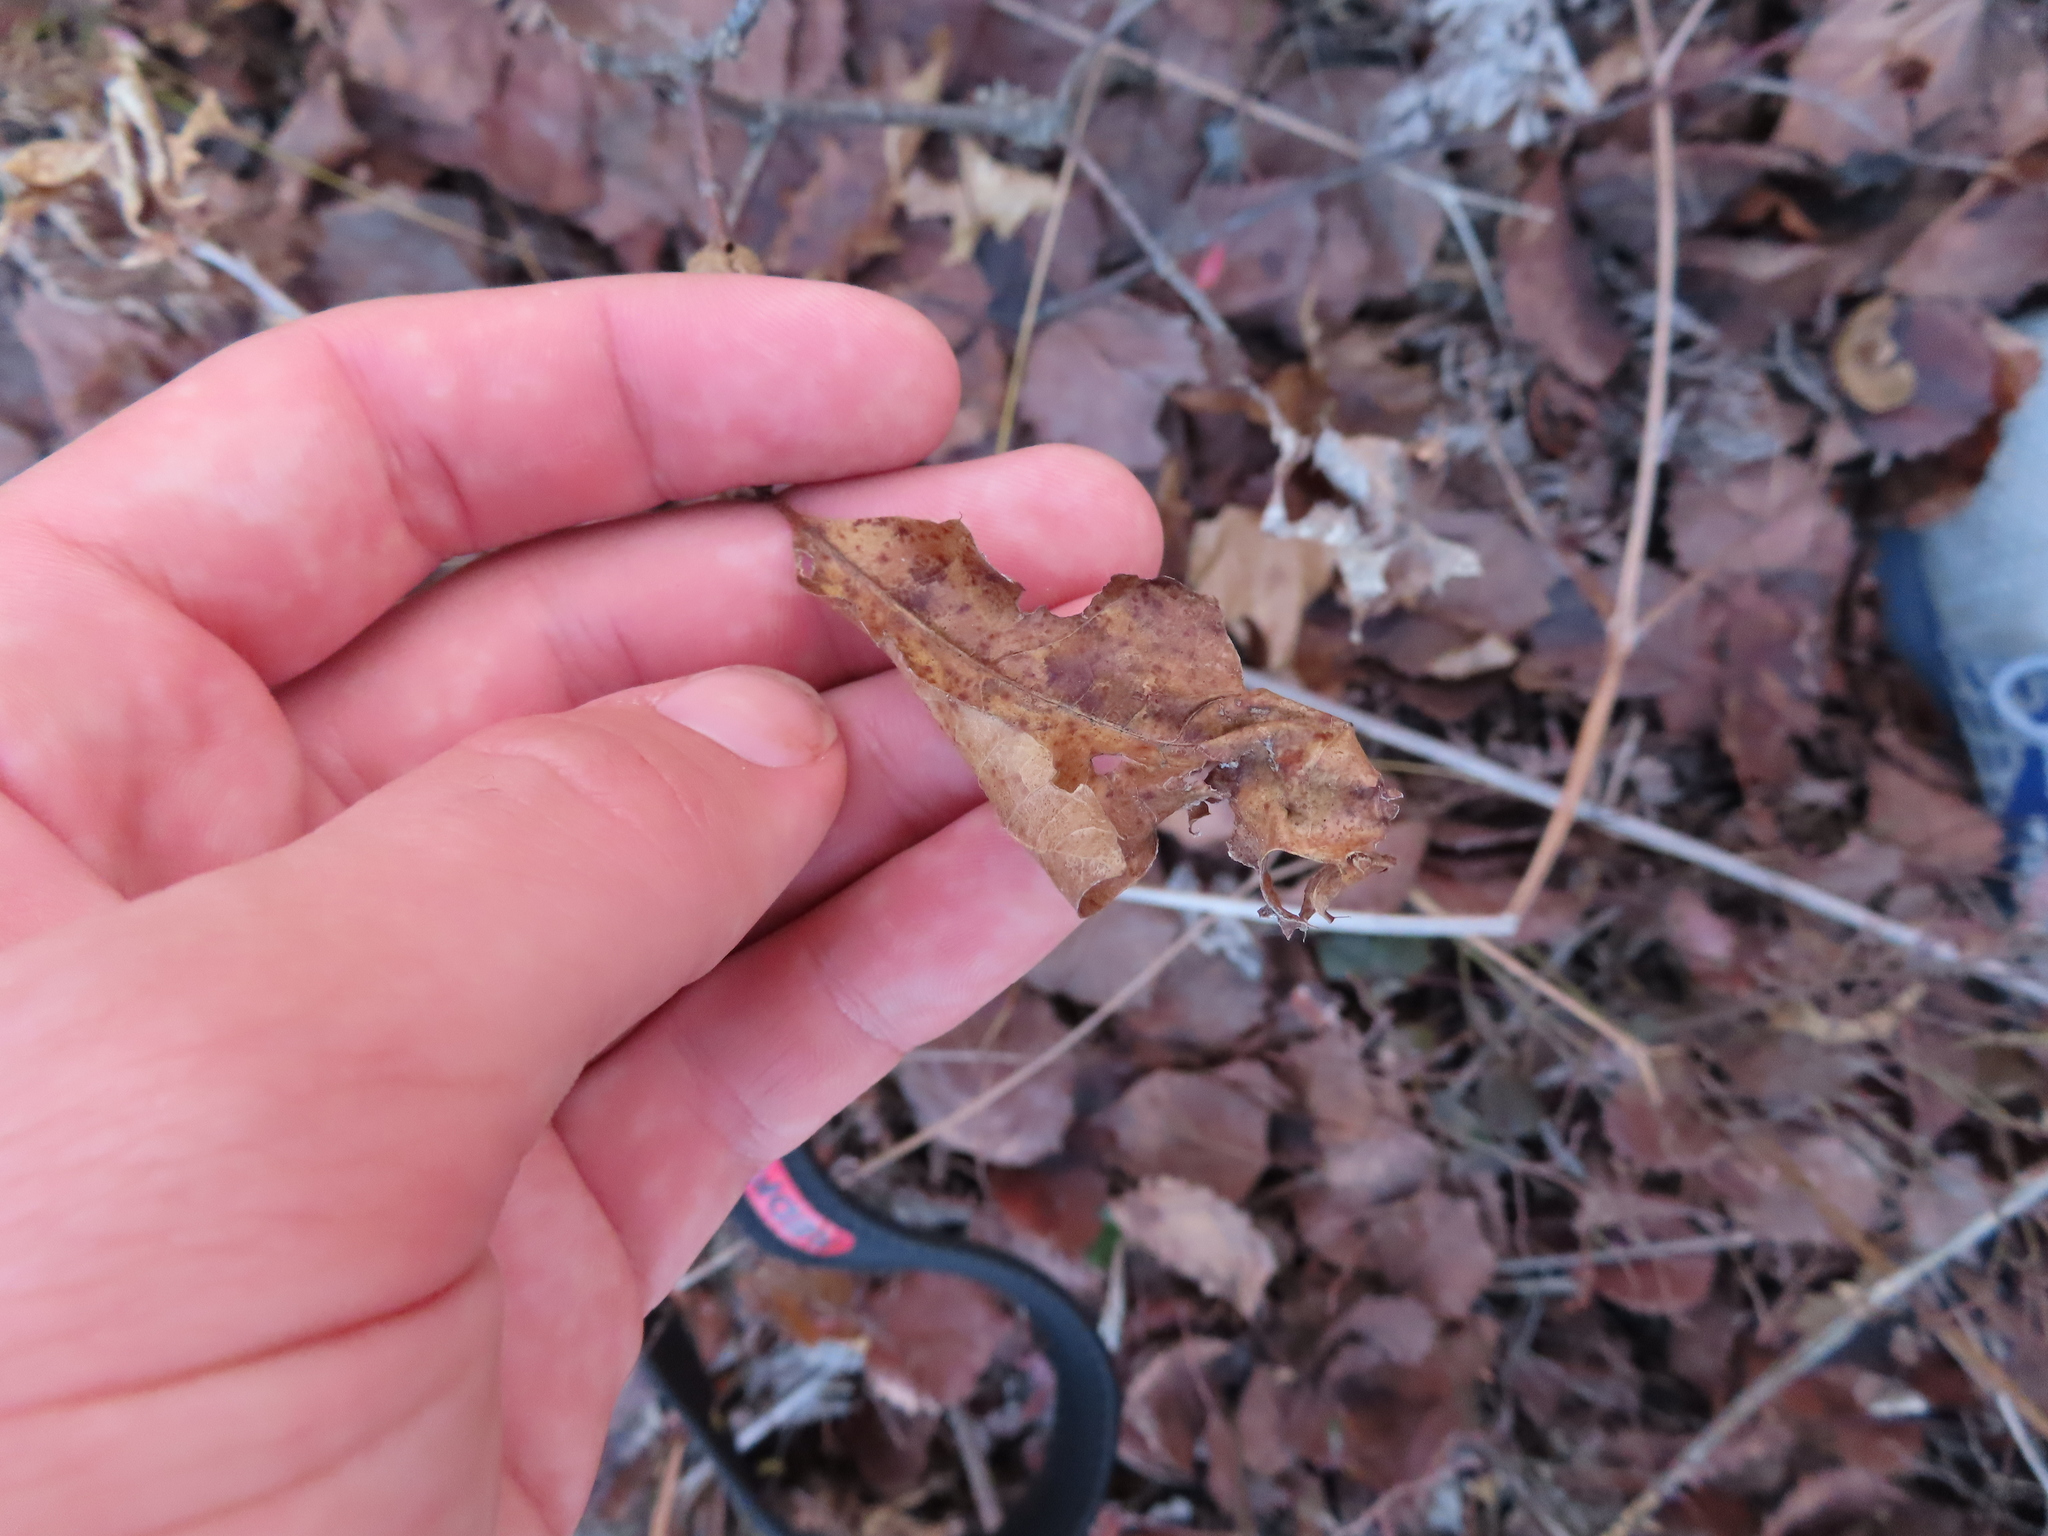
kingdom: Animalia
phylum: Arthropoda
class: Insecta
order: Hymenoptera
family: Cynipidae
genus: Amphibolips
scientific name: Amphibolips
